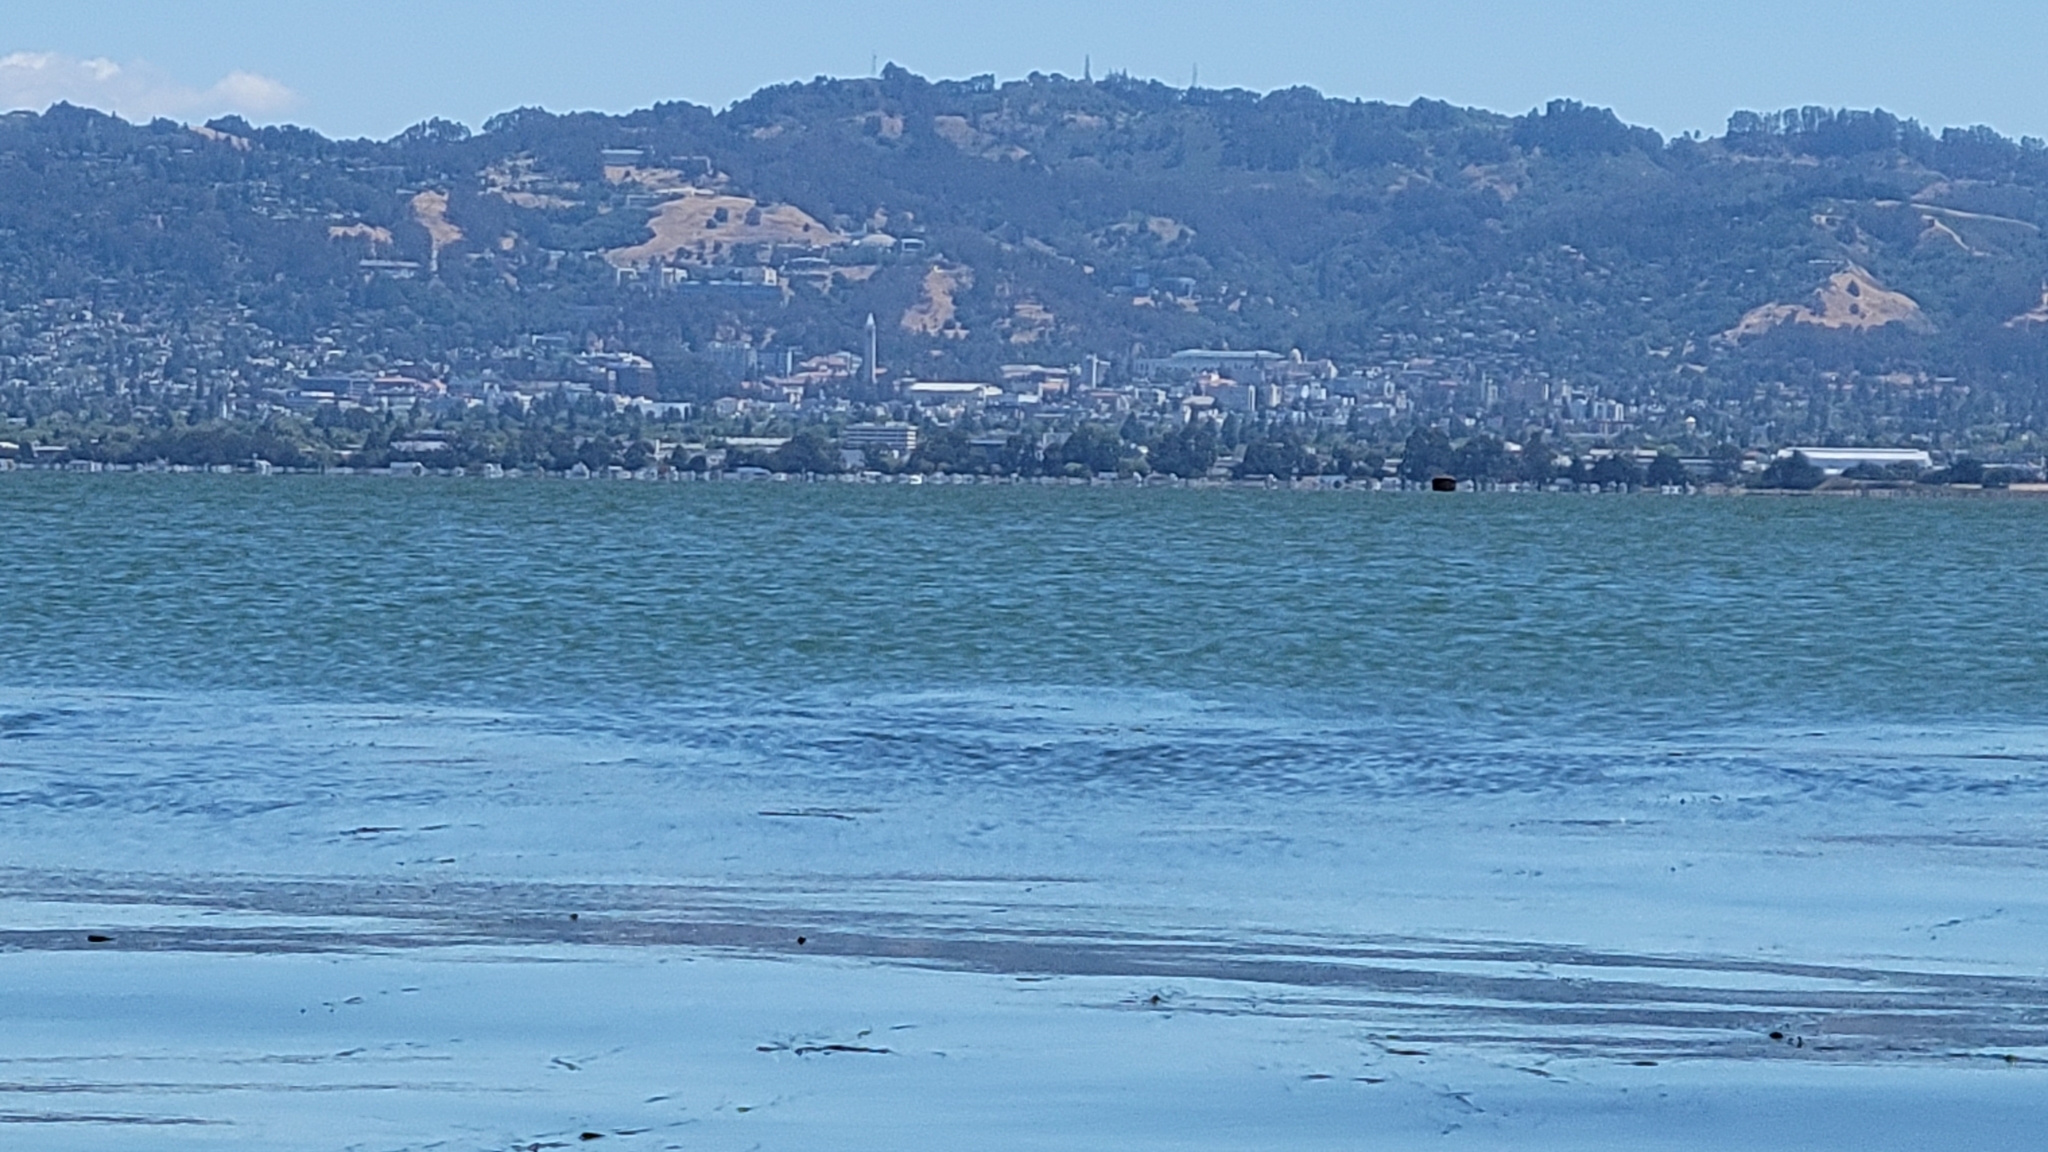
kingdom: Plantae
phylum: Tracheophyta
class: Liliopsida
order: Alismatales
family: Zosteraceae
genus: Zostera
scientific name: Zostera marina
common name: Eelgrass
